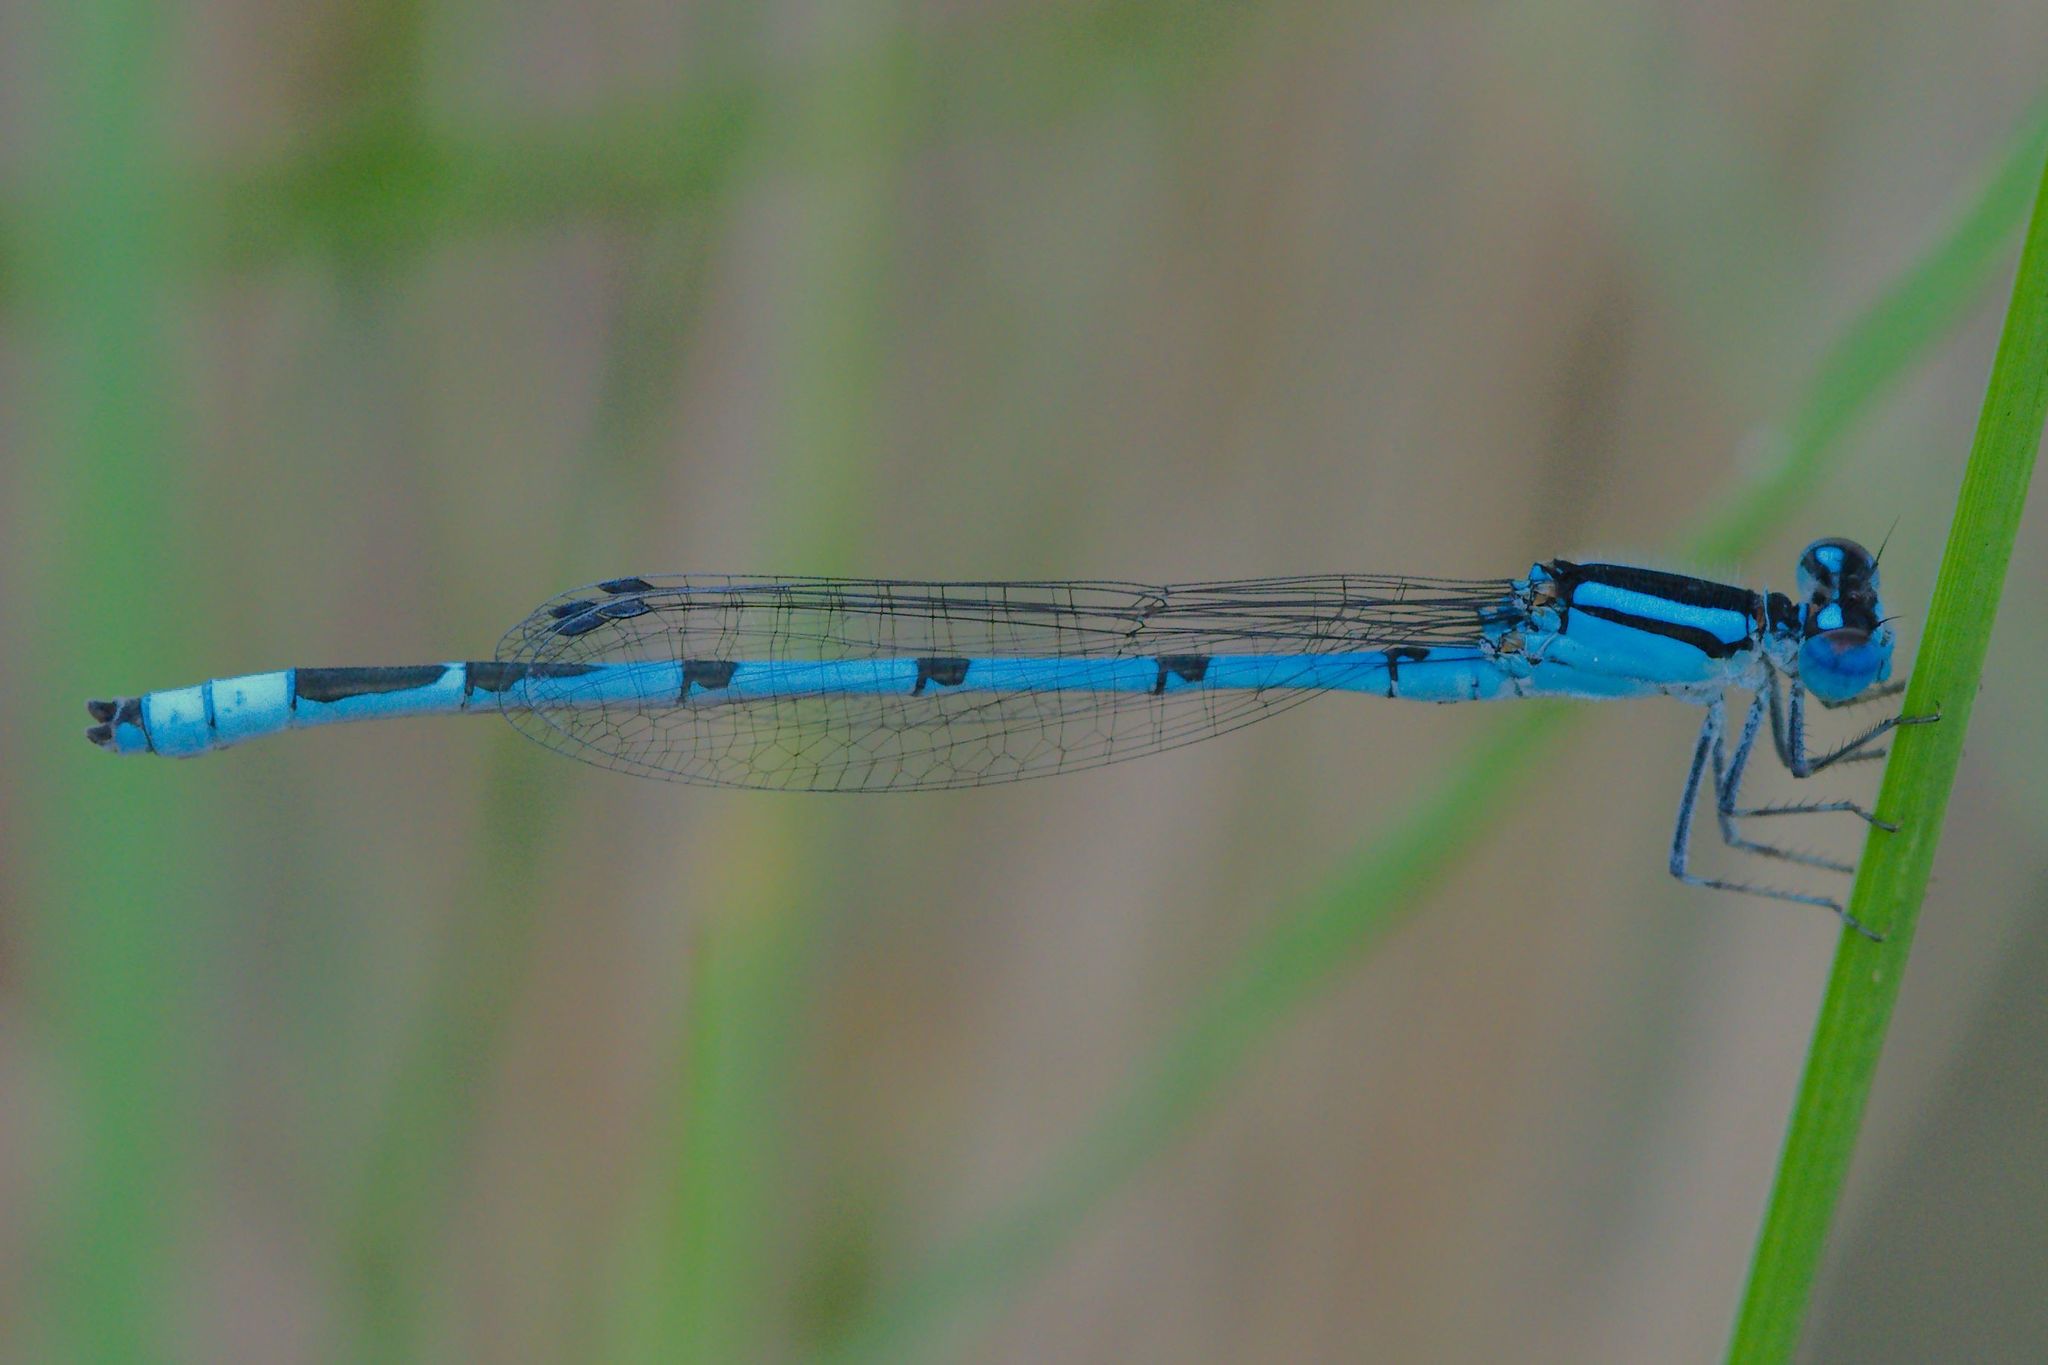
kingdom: Animalia
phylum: Arthropoda
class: Insecta
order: Odonata
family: Coenagrionidae
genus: Enallagma
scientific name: Enallagma civile
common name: Damselfly
